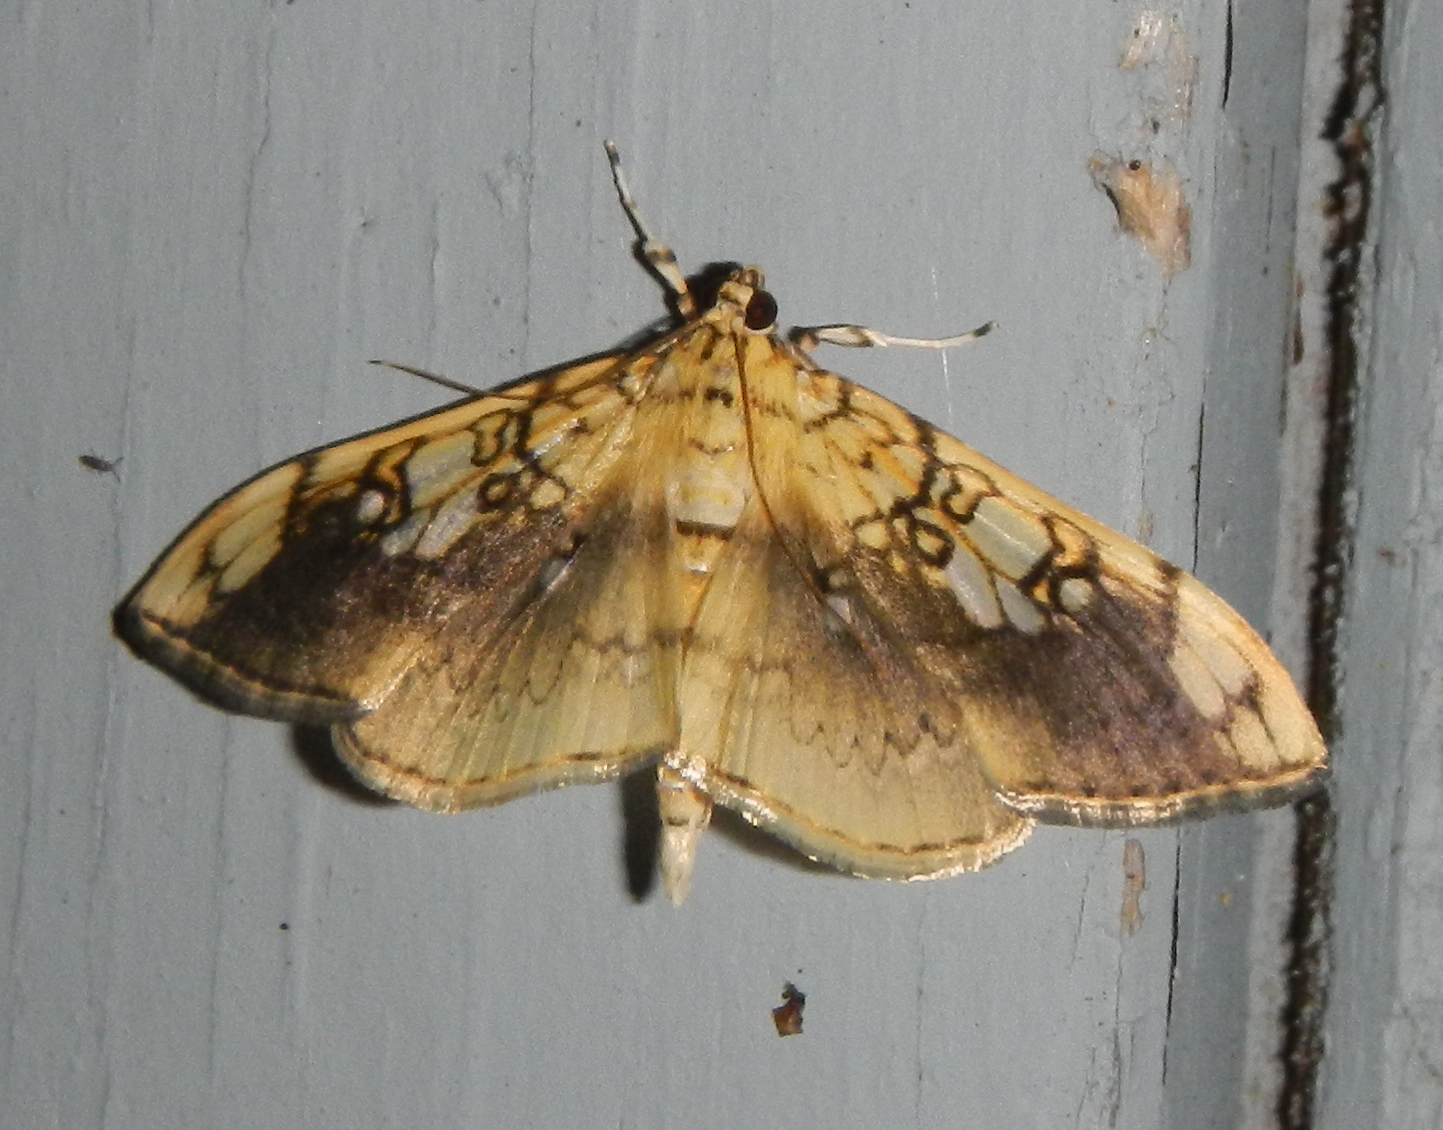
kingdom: Animalia
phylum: Arthropoda
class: Insecta
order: Lepidoptera
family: Crambidae
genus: Pantographa
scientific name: Pantographa limata
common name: Basswood leafroller moth
